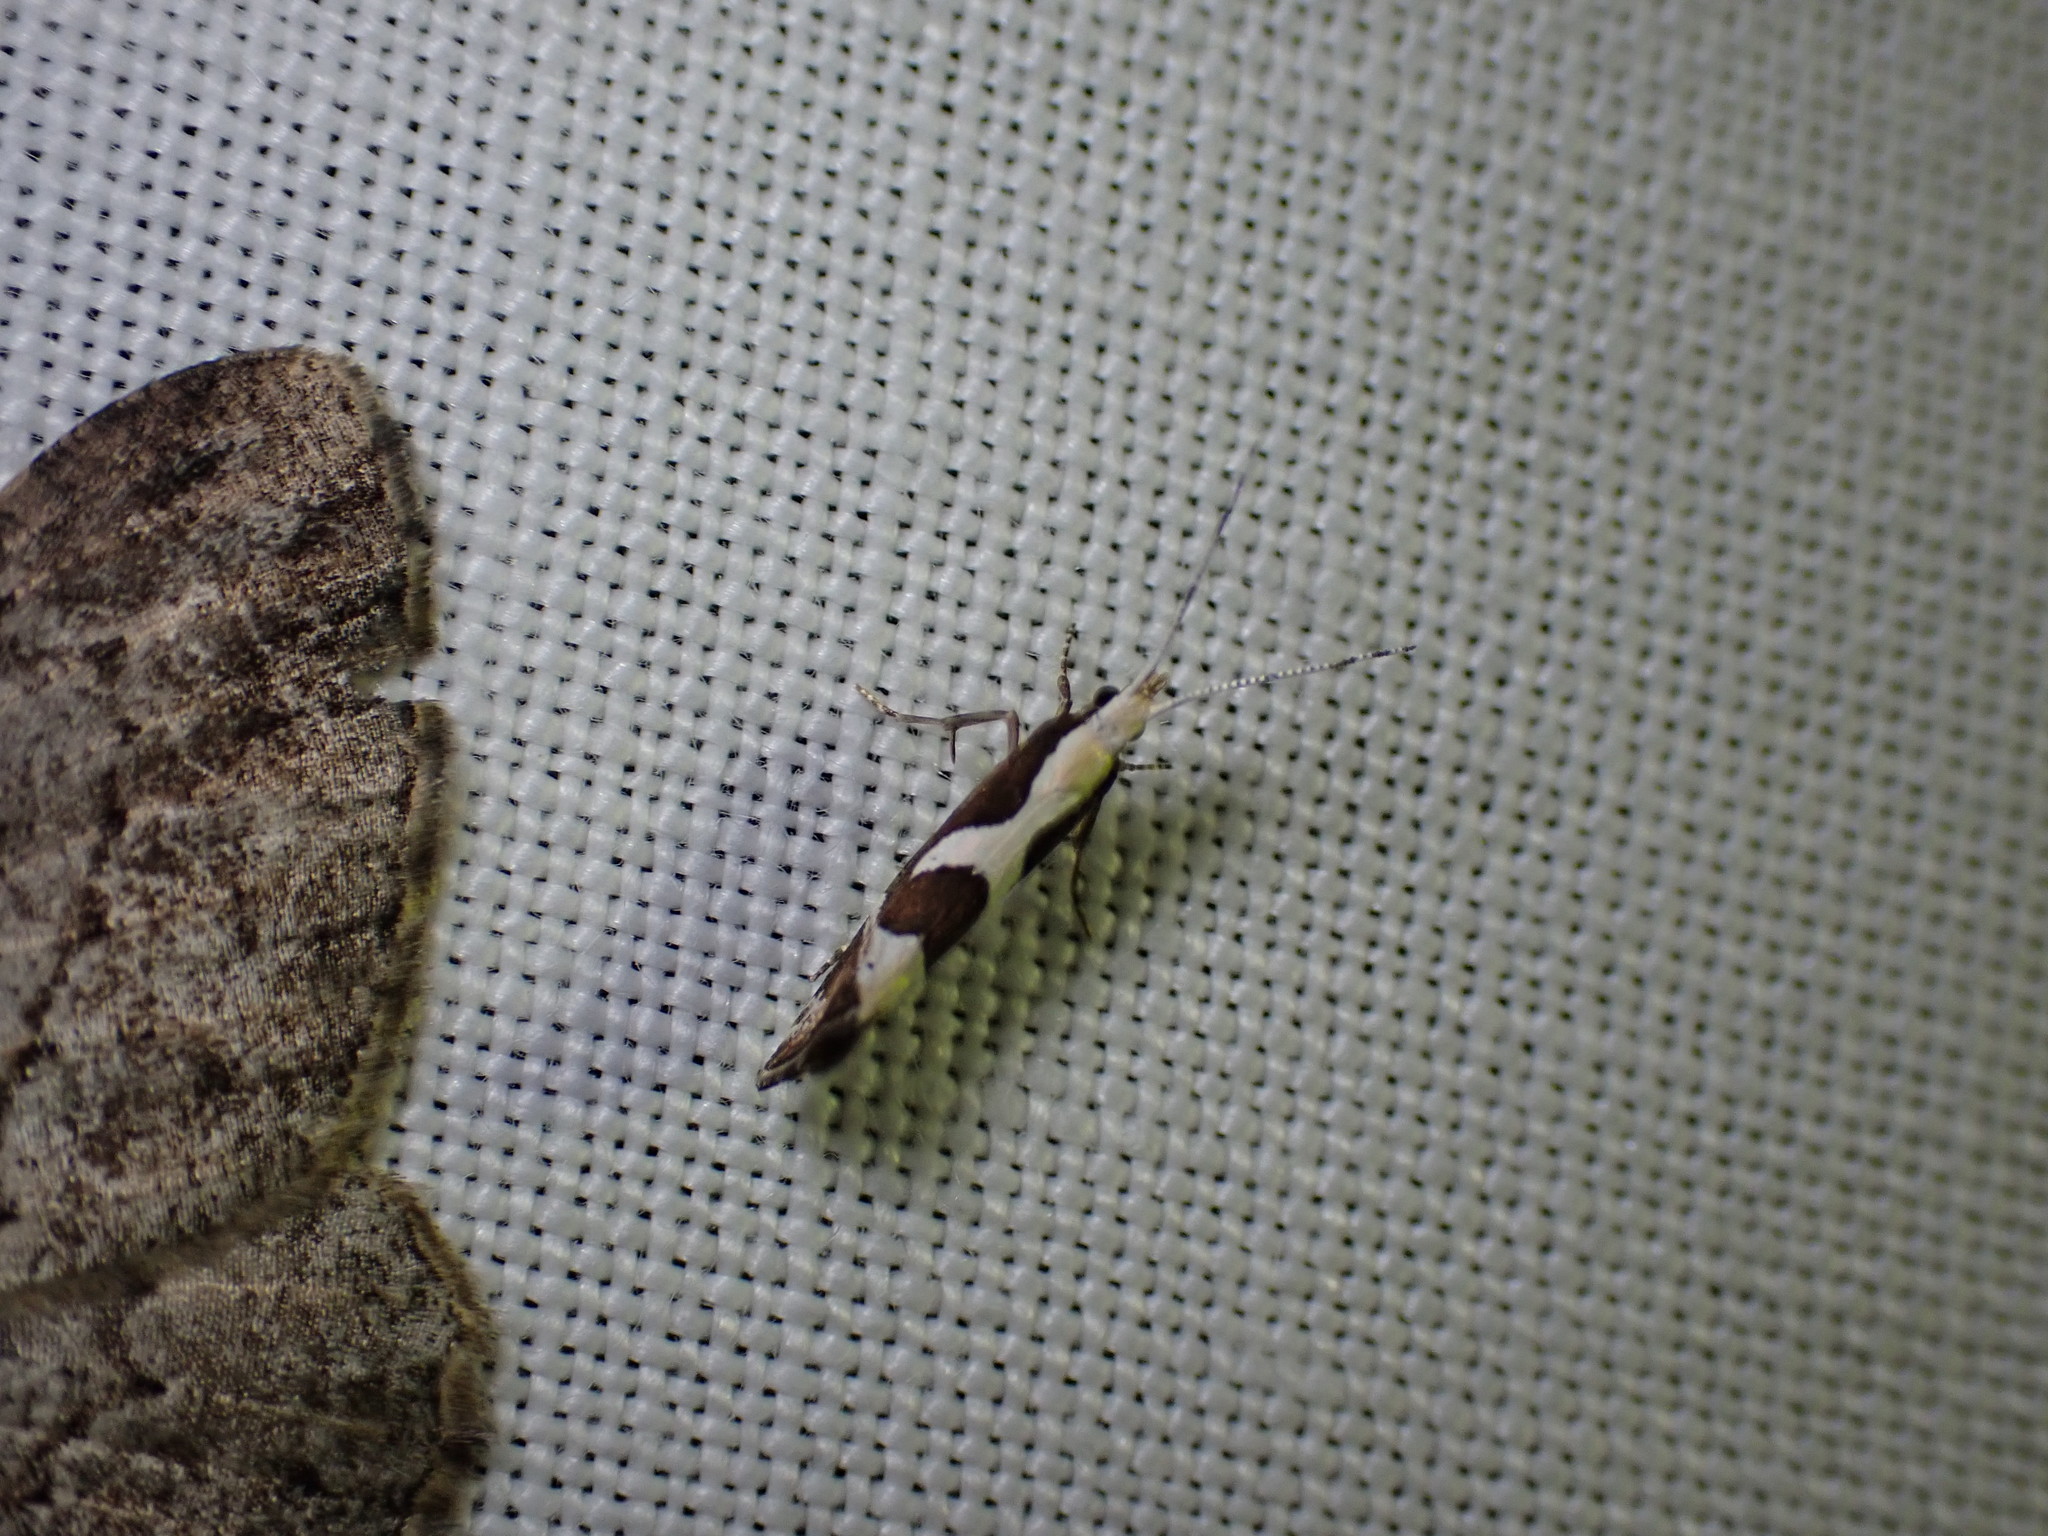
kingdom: Animalia
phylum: Arthropoda
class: Insecta
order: Lepidoptera
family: Plutellidae
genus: Eidophasia
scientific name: Eidophasia syenitella
